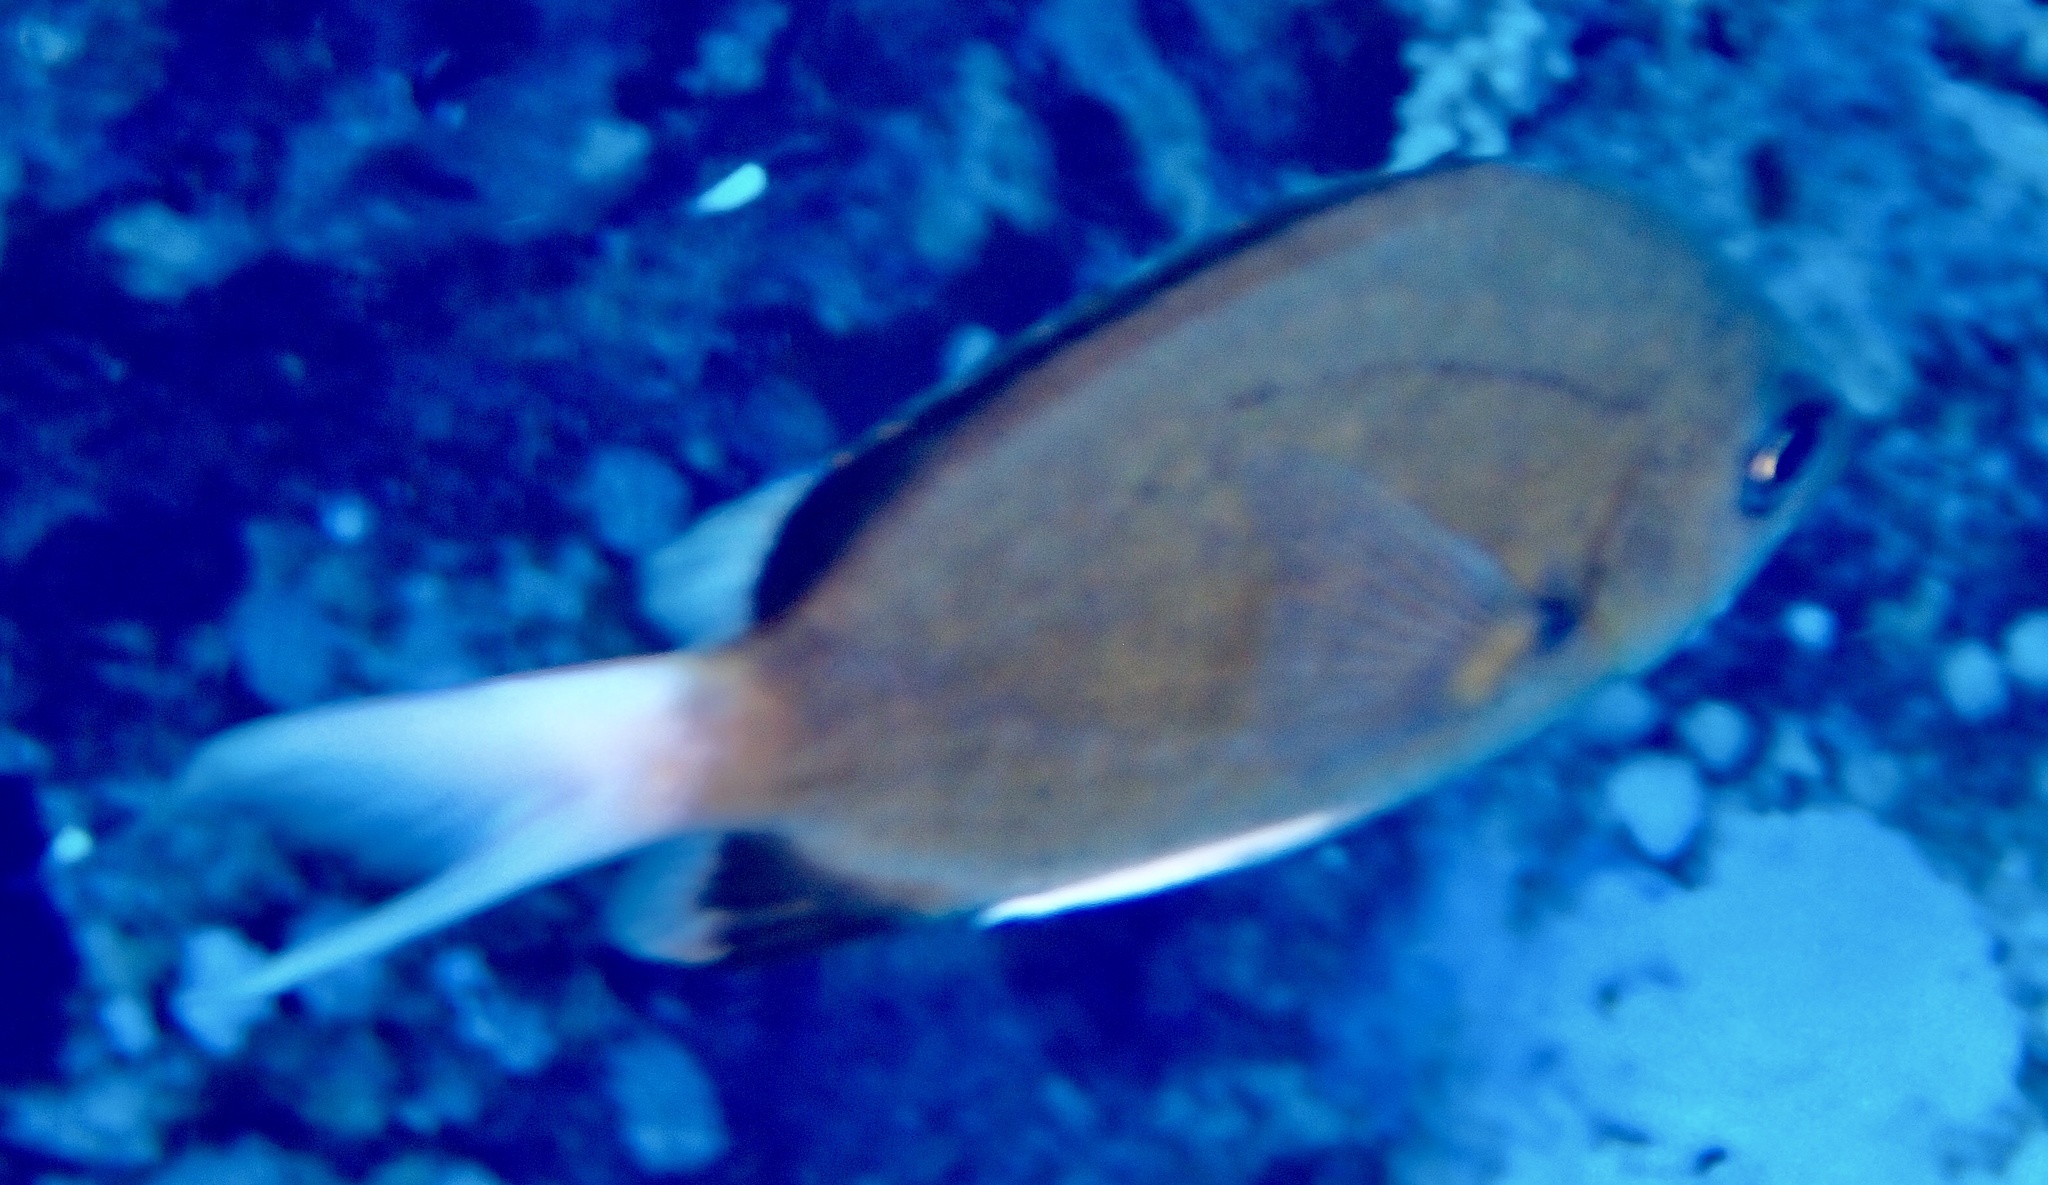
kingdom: Animalia
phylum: Chordata
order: Perciformes
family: Pomacentridae
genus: Chromis
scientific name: Chromis pembae
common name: Pemba chromis
